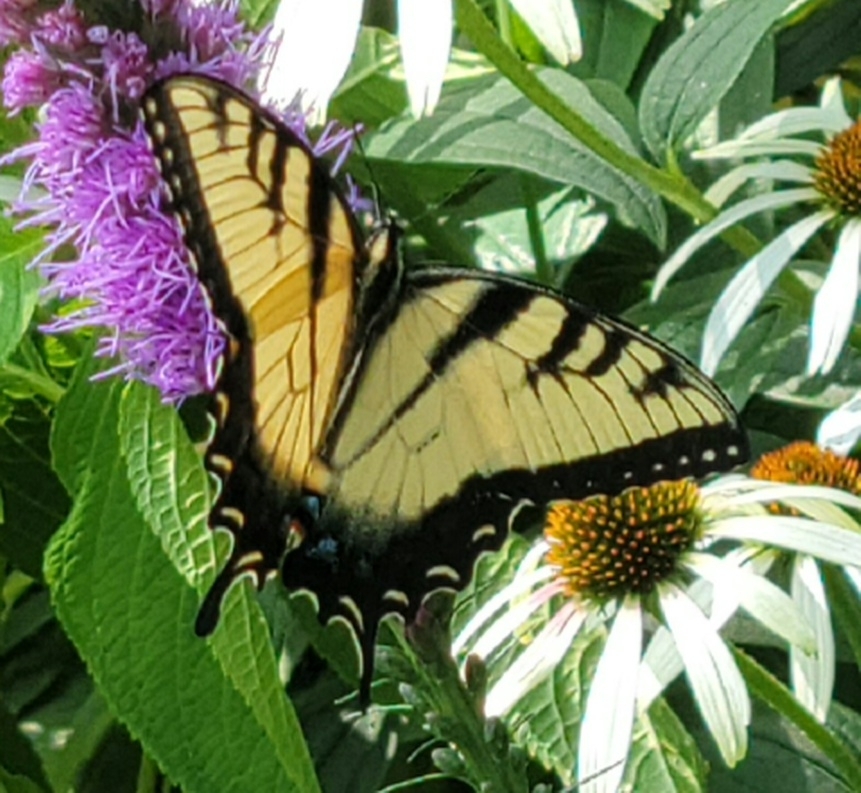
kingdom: Animalia
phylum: Arthropoda
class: Insecta
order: Lepidoptera
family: Papilionidae
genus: Papilio
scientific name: Papilio glaucus
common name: Tiger swallowtail
